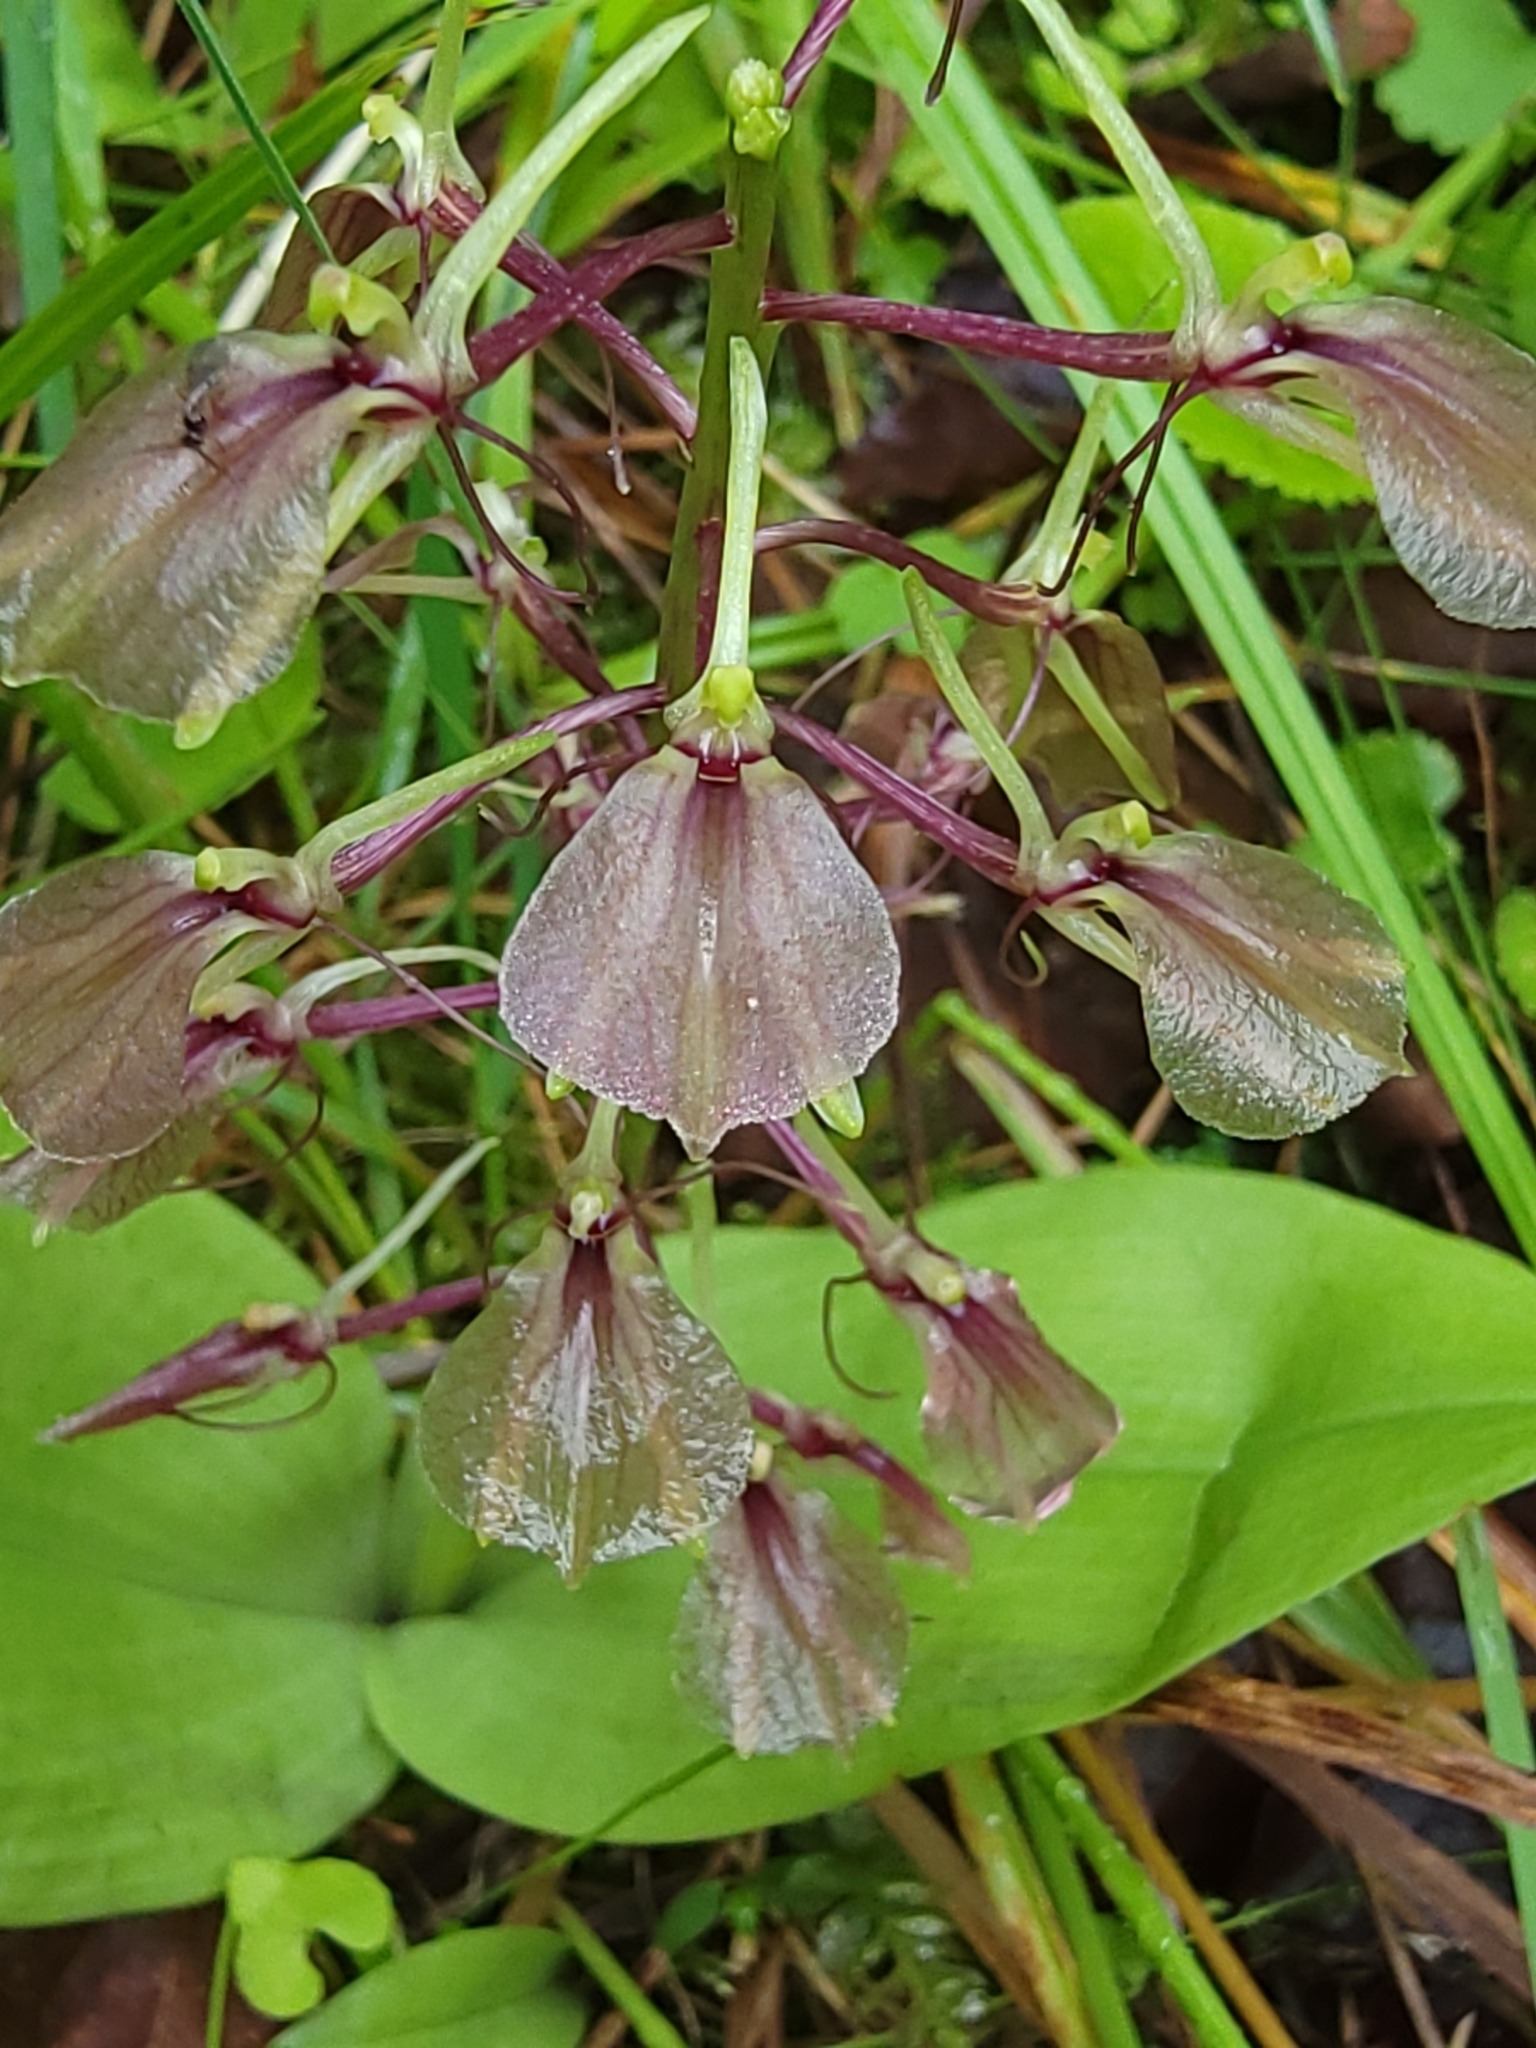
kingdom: Plantae
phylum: Tracheophyta
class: Liliopsida
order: Asparagales
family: Orchidaceae
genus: Liparis
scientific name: Liparis liliifolia
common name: Brown wide-lip orchid
